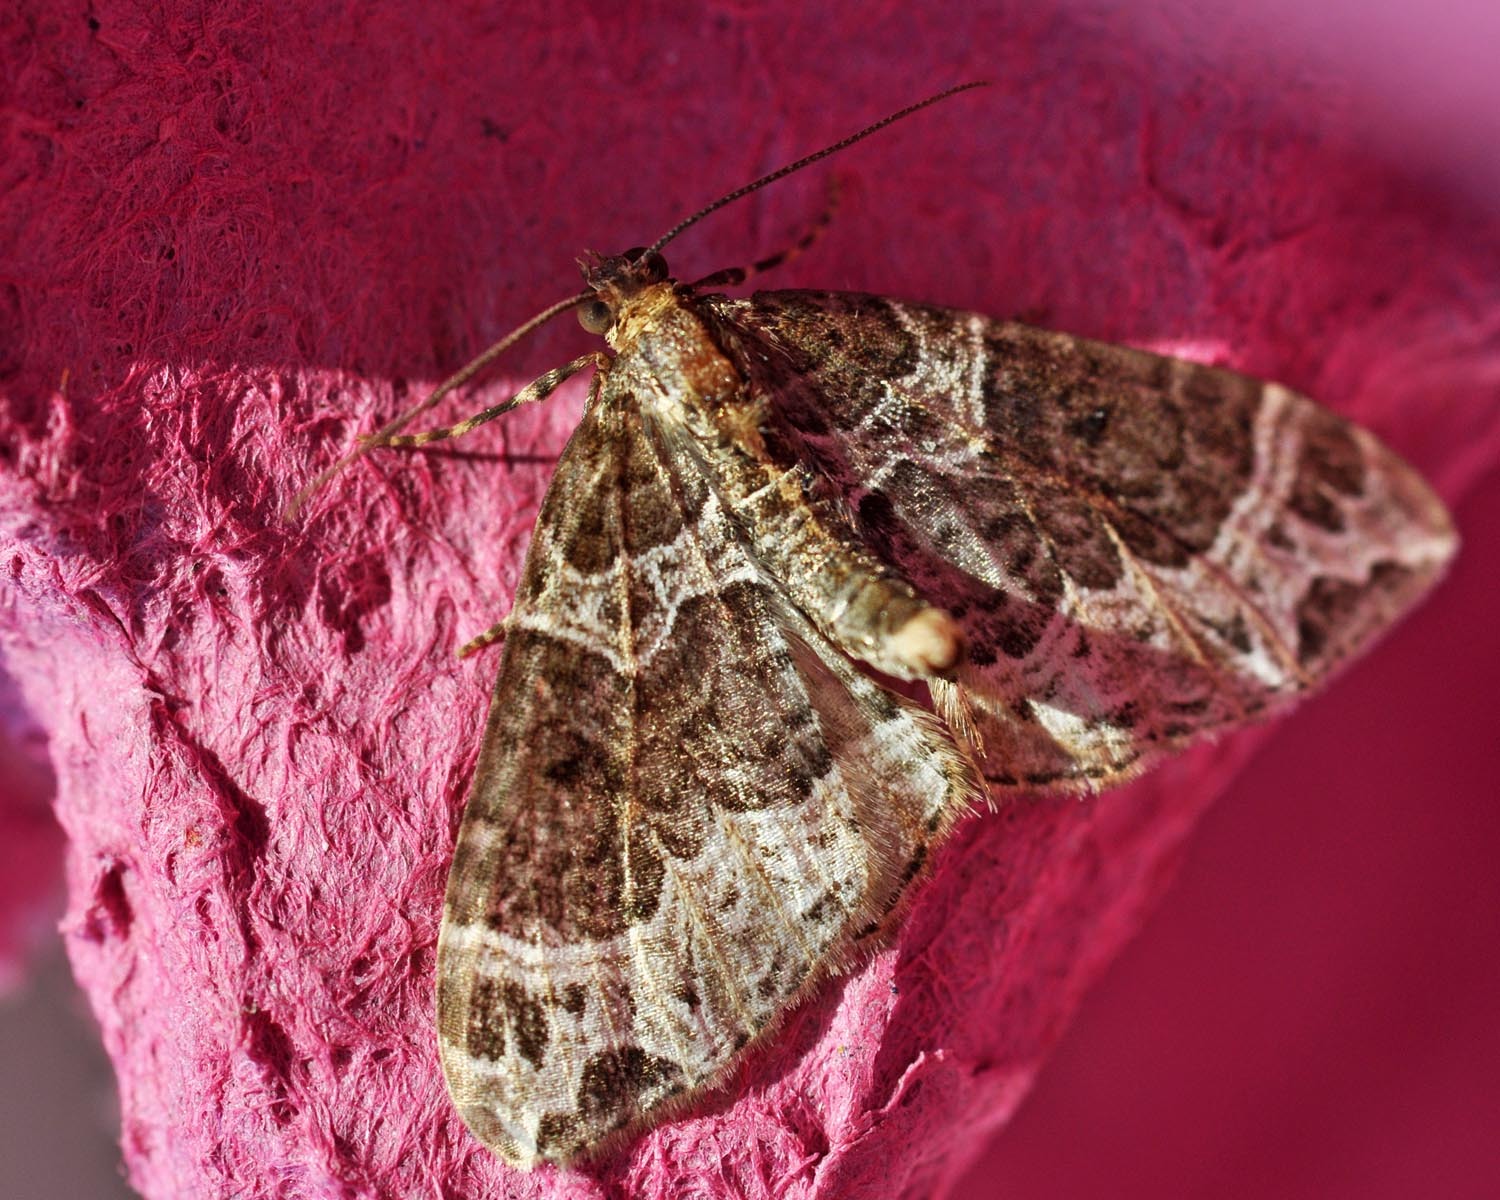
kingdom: Animalia
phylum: Arthropoda
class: Insecta
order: Lepidoptera
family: Geometridae
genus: Ecliptopera
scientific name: Ecliptopera silaceata
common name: Small phoenix
